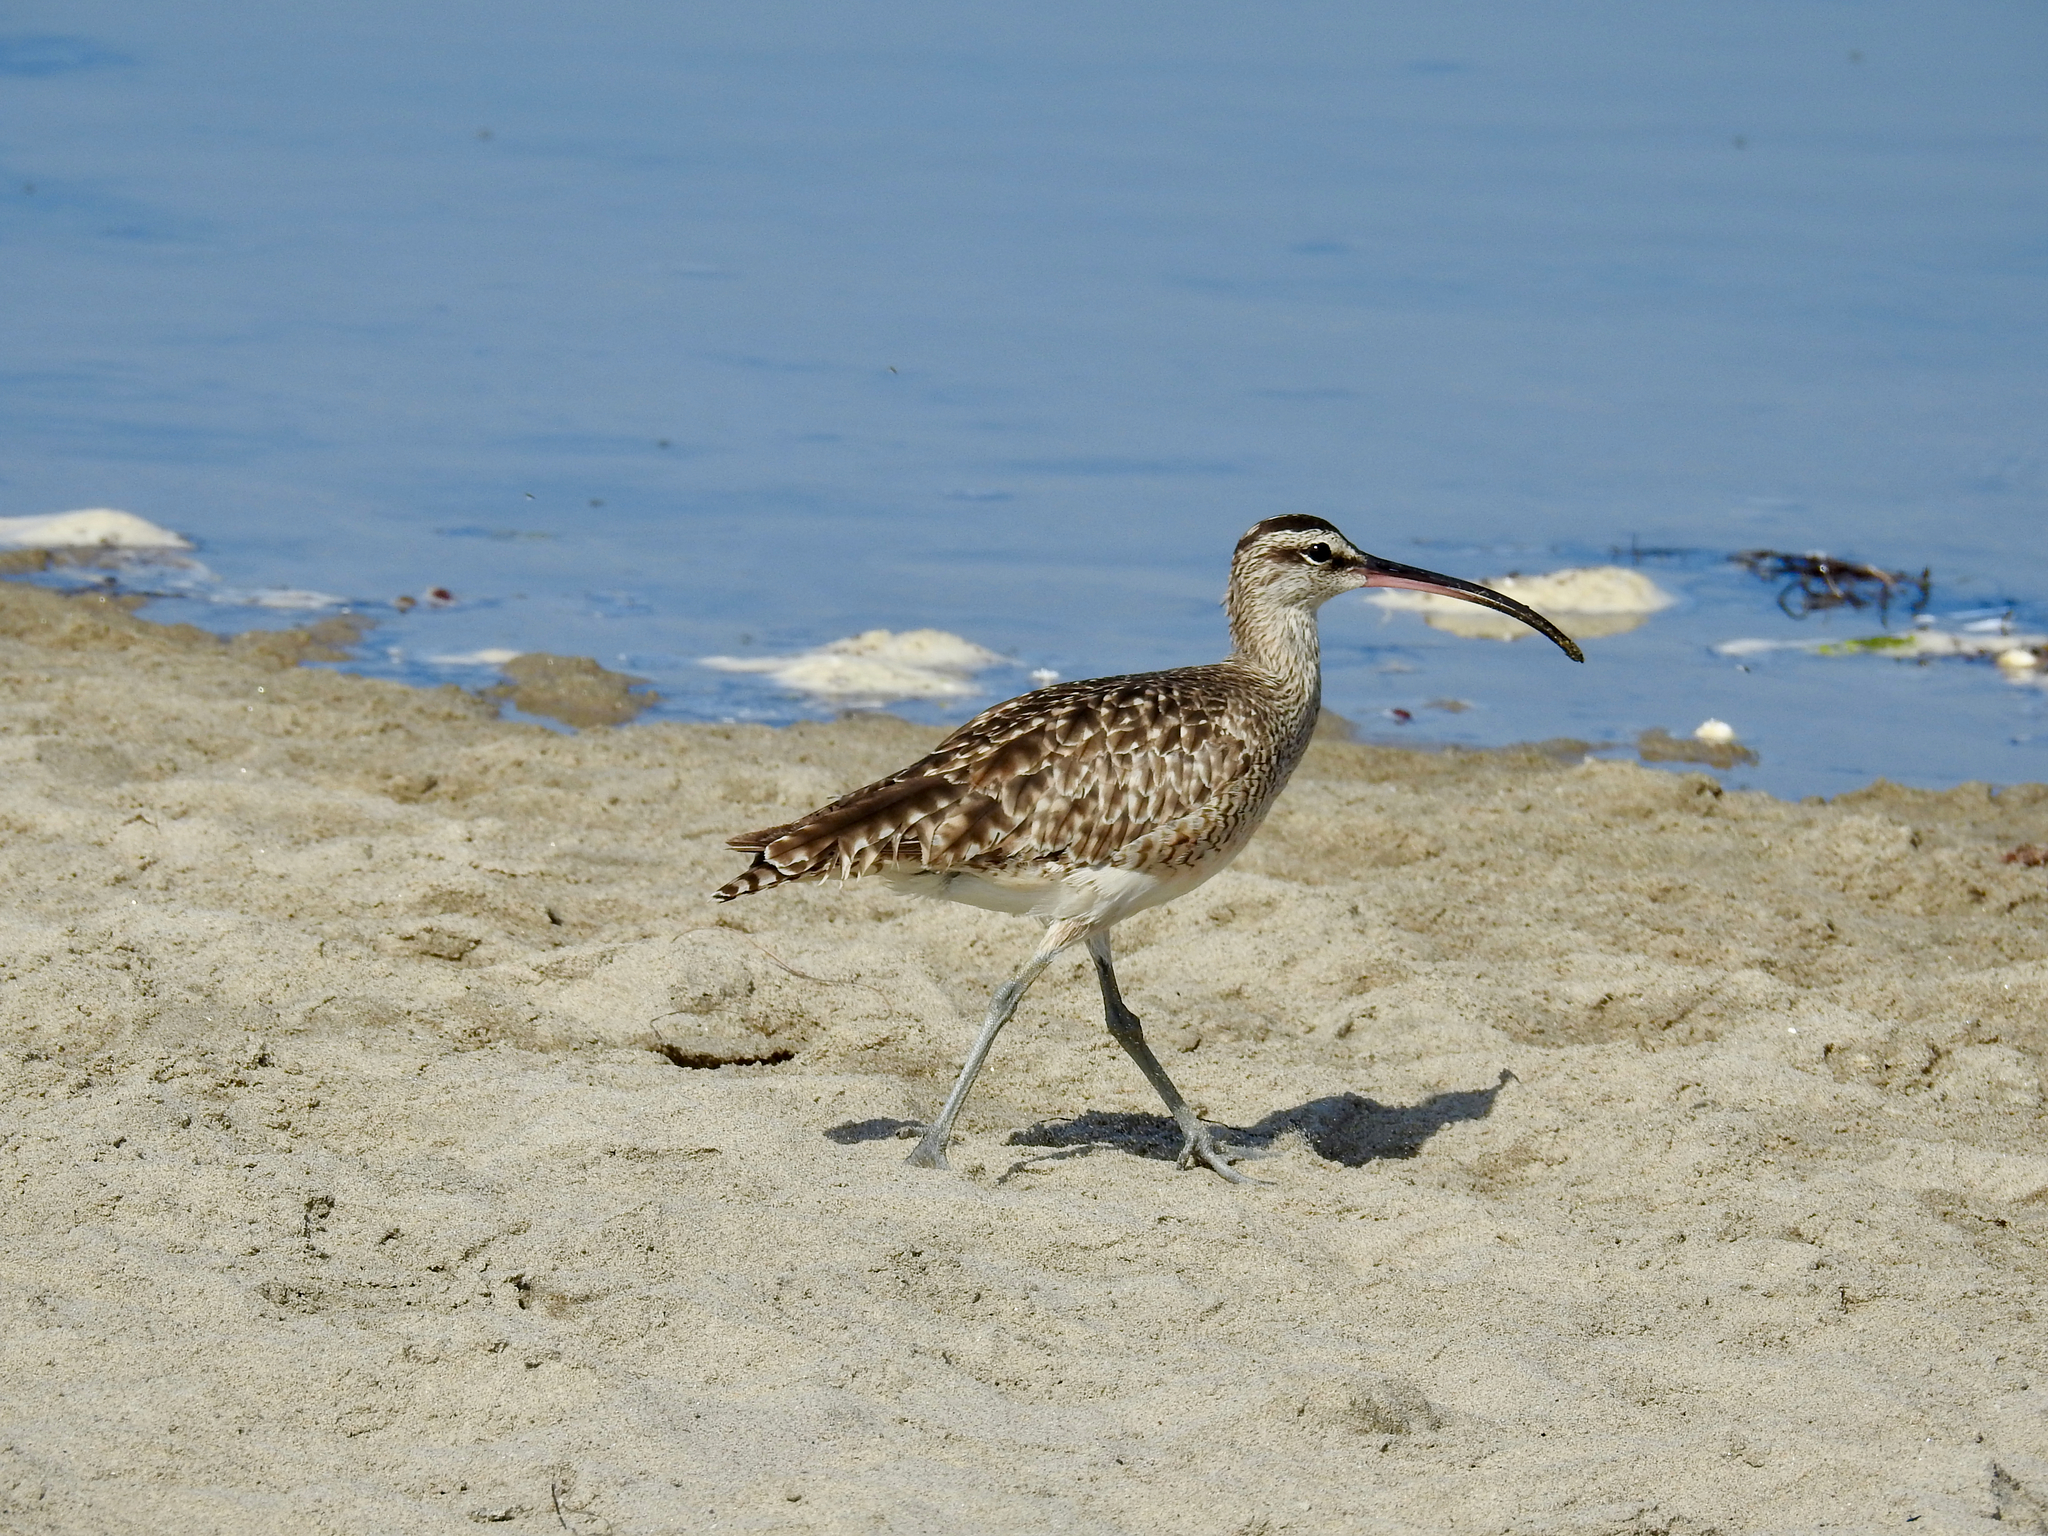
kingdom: Animalia
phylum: Chordata
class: Aves
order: Charadriiformes
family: Scolopacidae
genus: Numenius
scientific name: Numenius phaeopus
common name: Whimbrel
